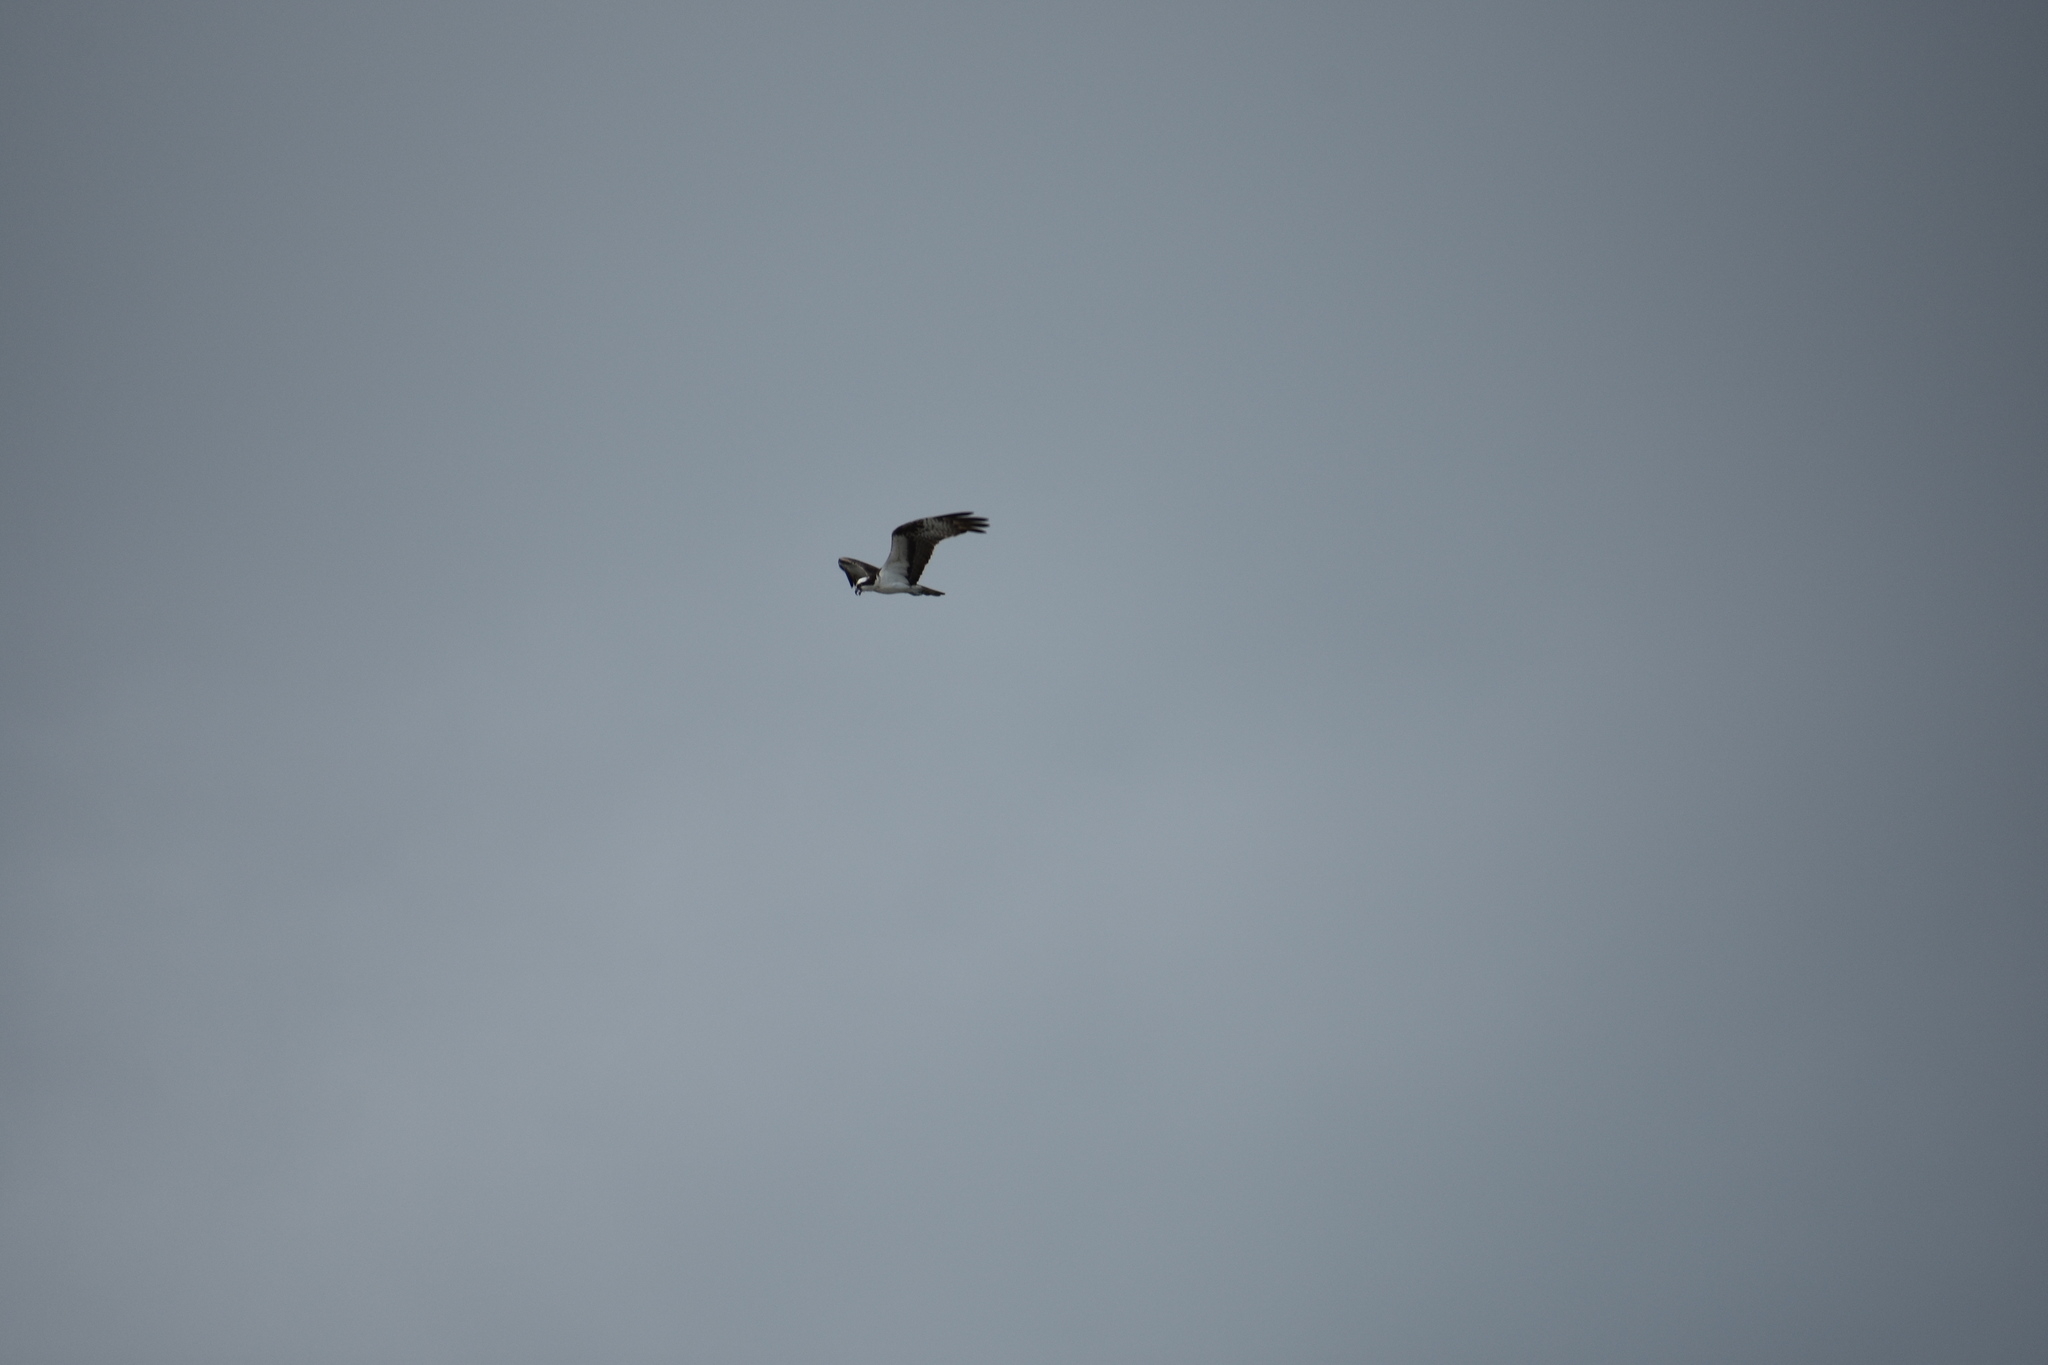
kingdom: Animalia
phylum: Chordata
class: Aves
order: Accipitriformes
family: Pandionidae
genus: Pandion
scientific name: Pandion haliaetus
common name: Osprey
